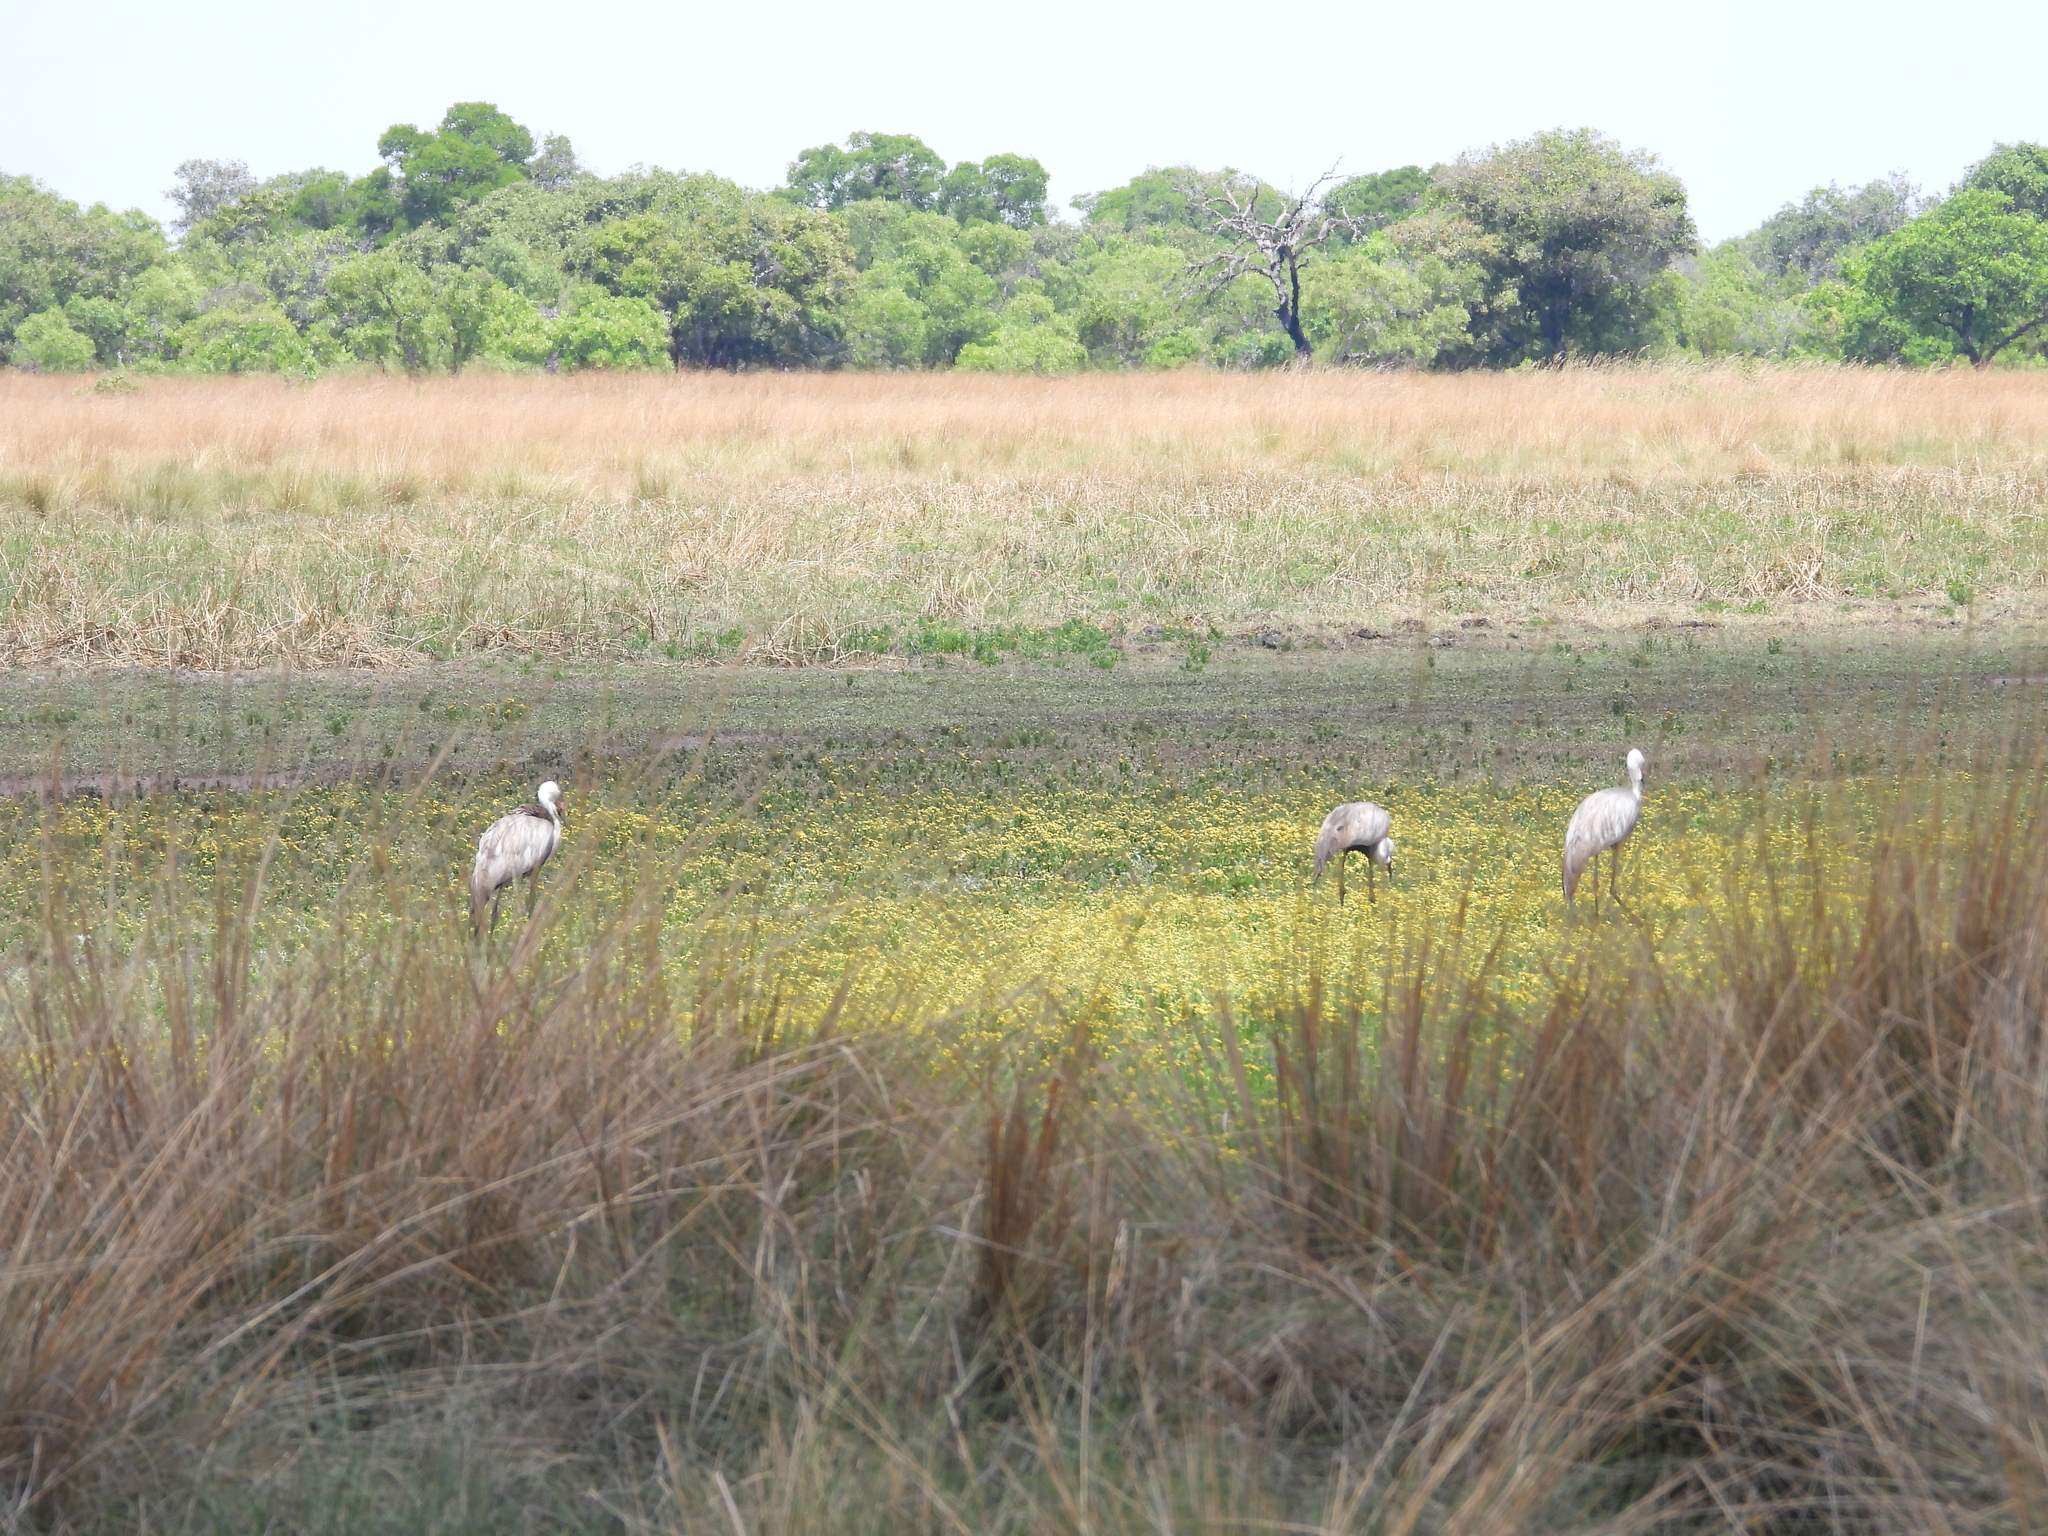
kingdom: Animalia
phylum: Chordata
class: Aves
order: Gruiformes
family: Gruidae
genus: Bugeranus
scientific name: Bugeranus carunculatus
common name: Wattled crane
